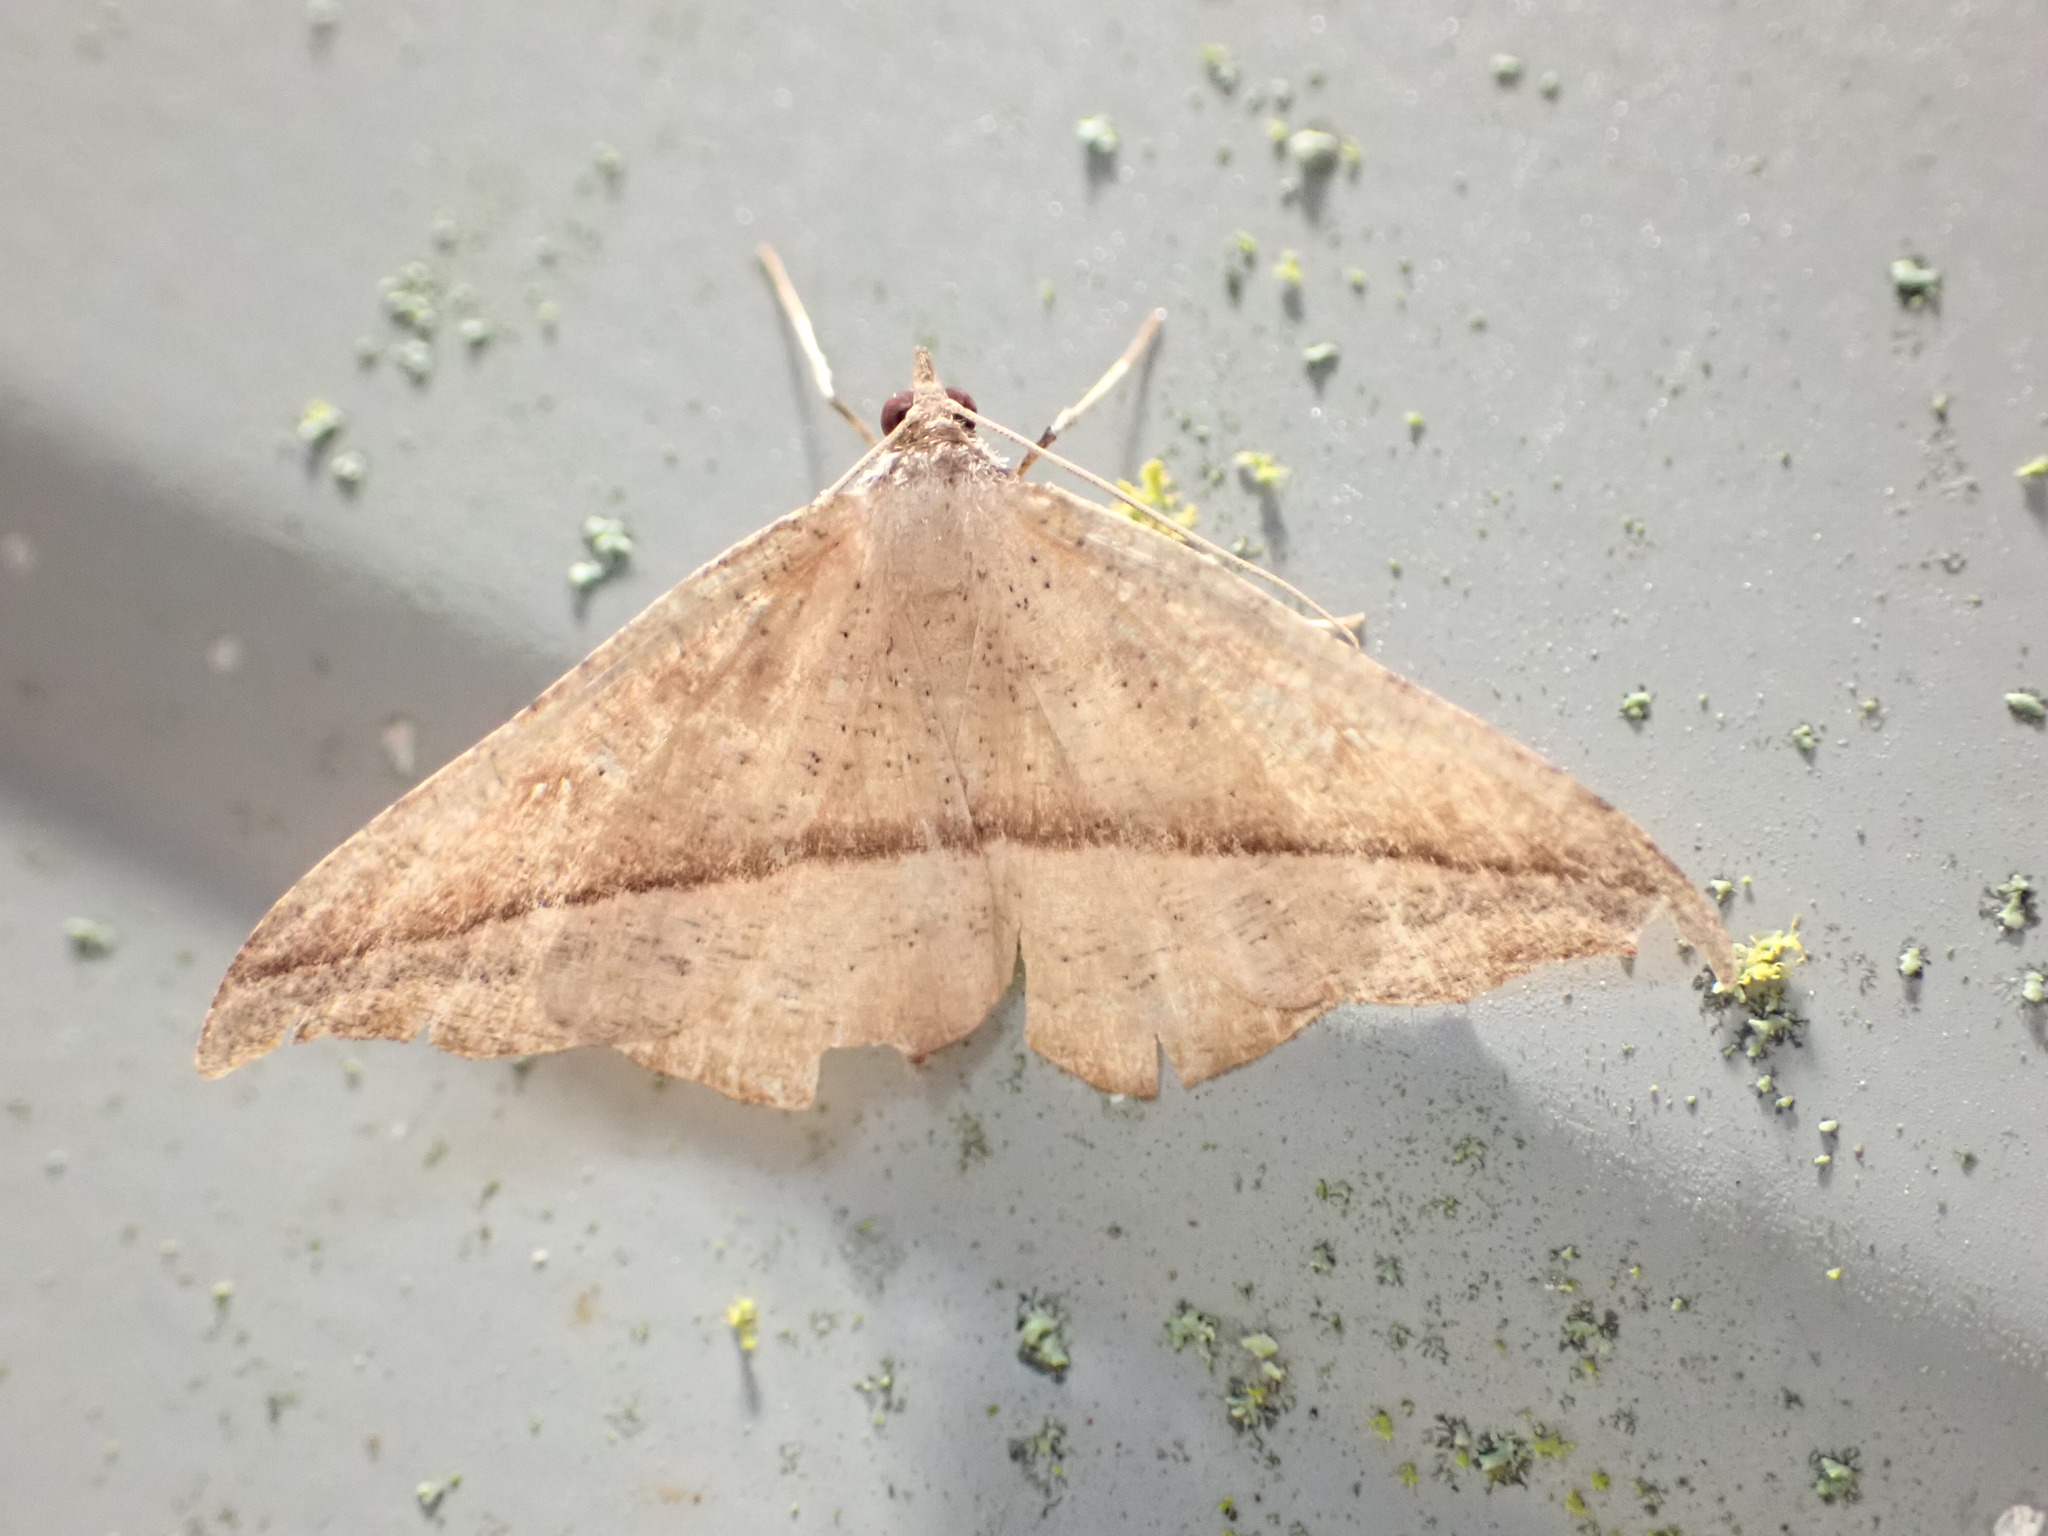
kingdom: Animalia
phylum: Arthropoda
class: Insecta
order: Lepidoptera
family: Geometridae
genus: Sarisa
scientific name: Sarisa muriferata
